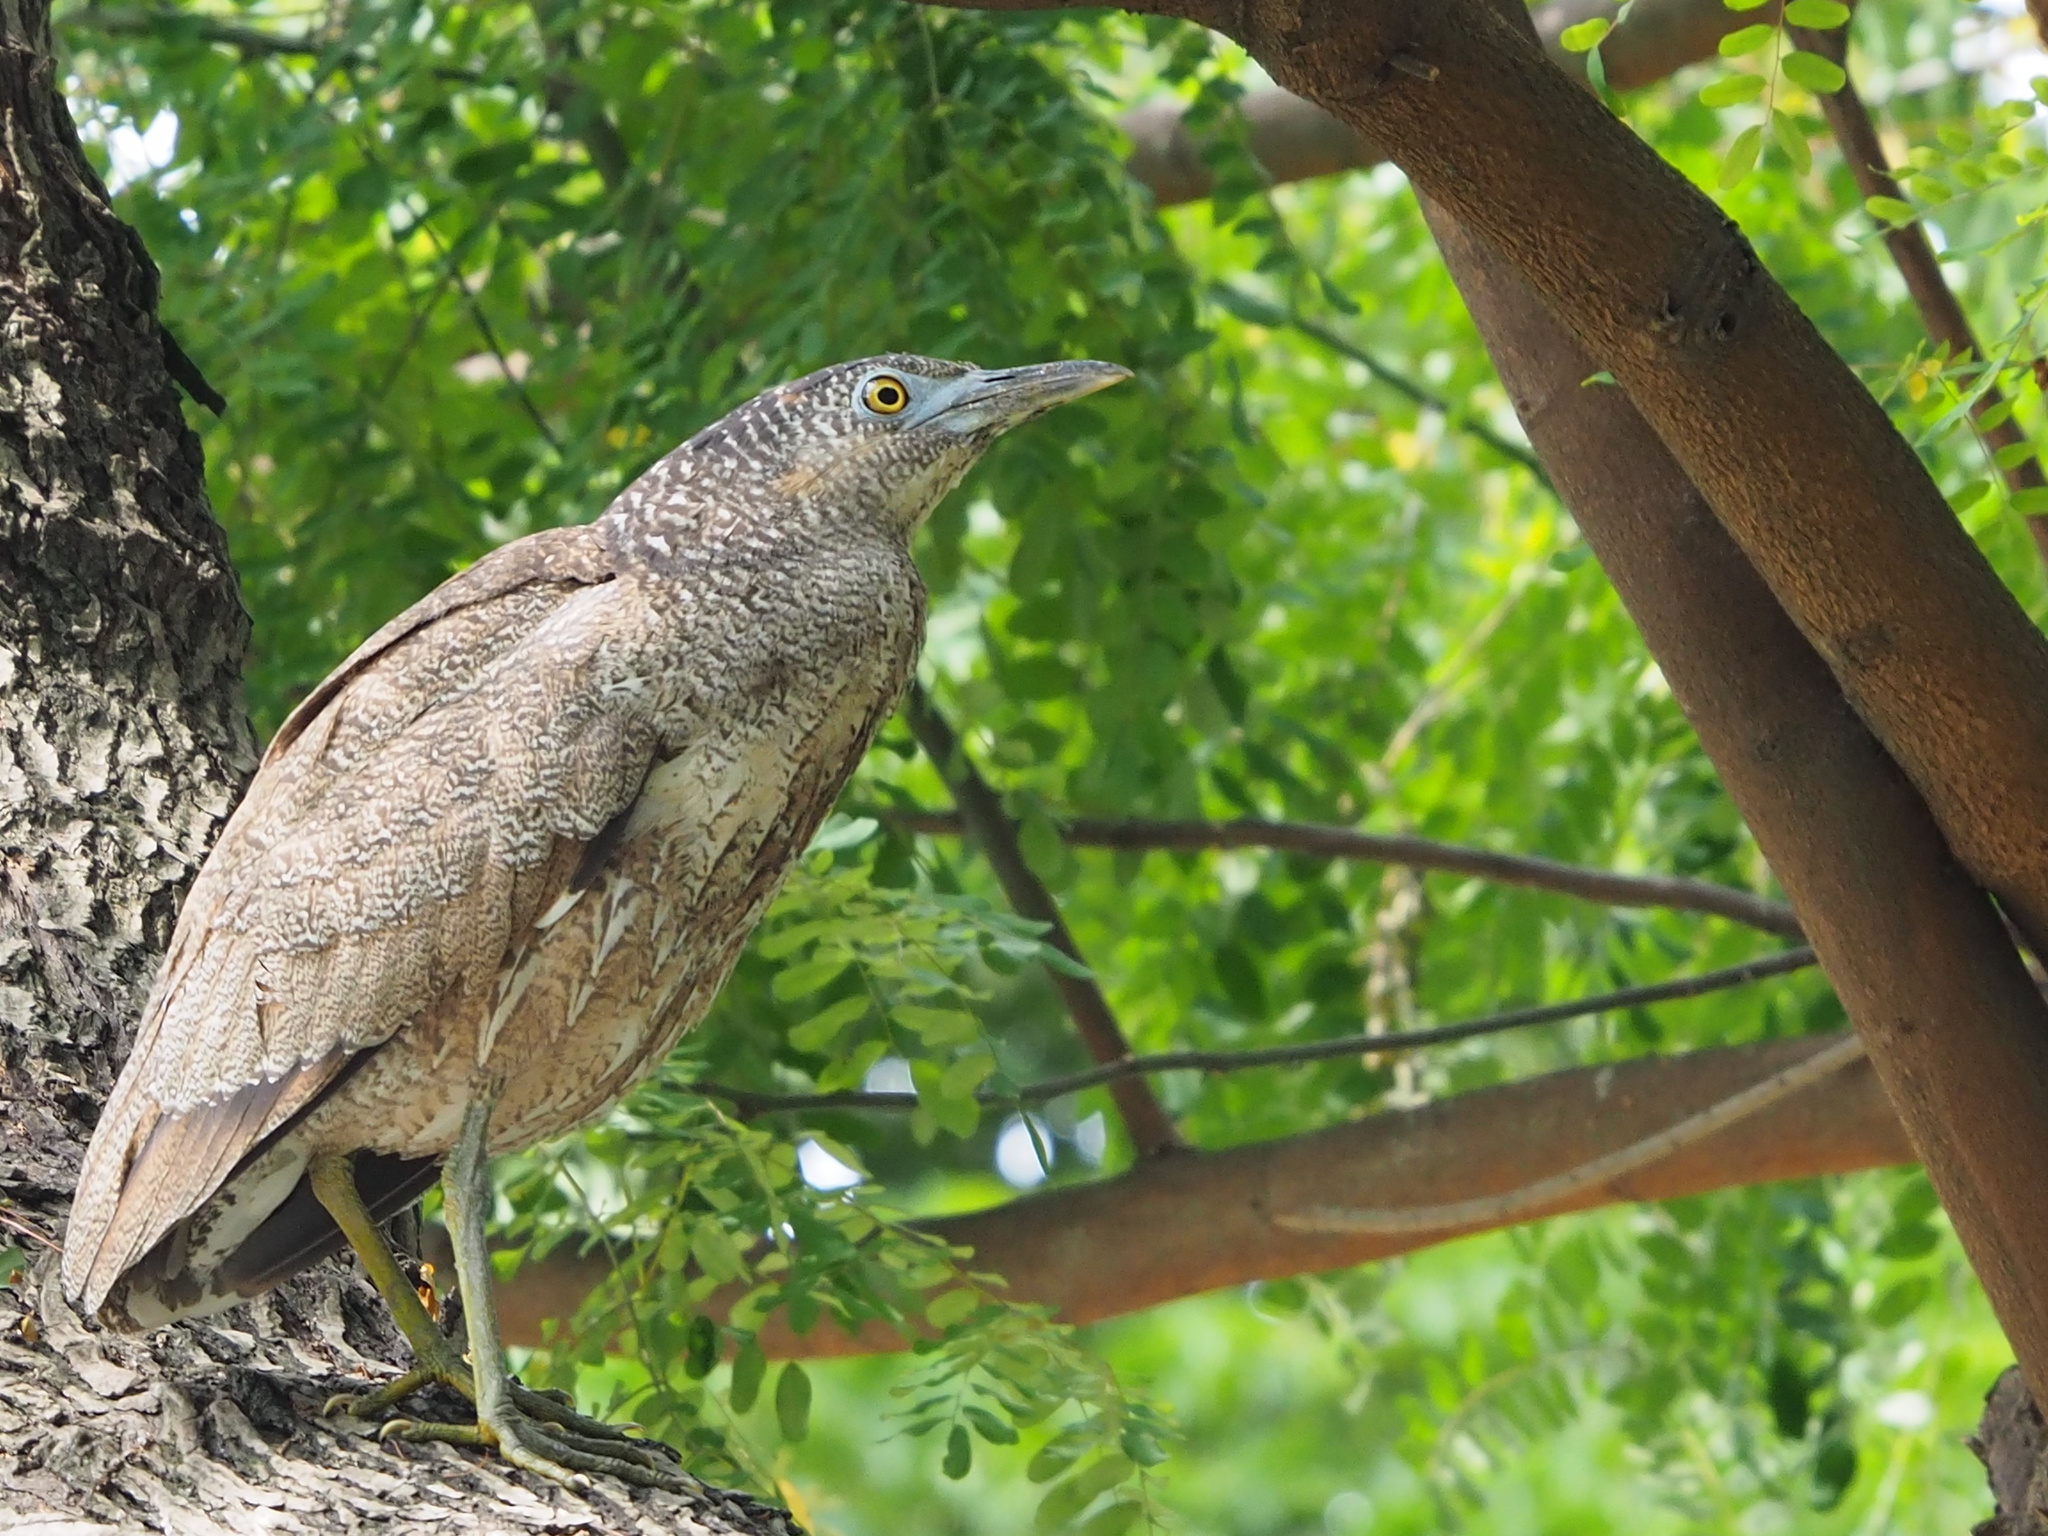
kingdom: Animalia
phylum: Chordata
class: Aves
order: Pelecaniformes
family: Ardeidae
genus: Gorsachius
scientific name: Gorsachius melanolophus
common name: Malayan night heron
